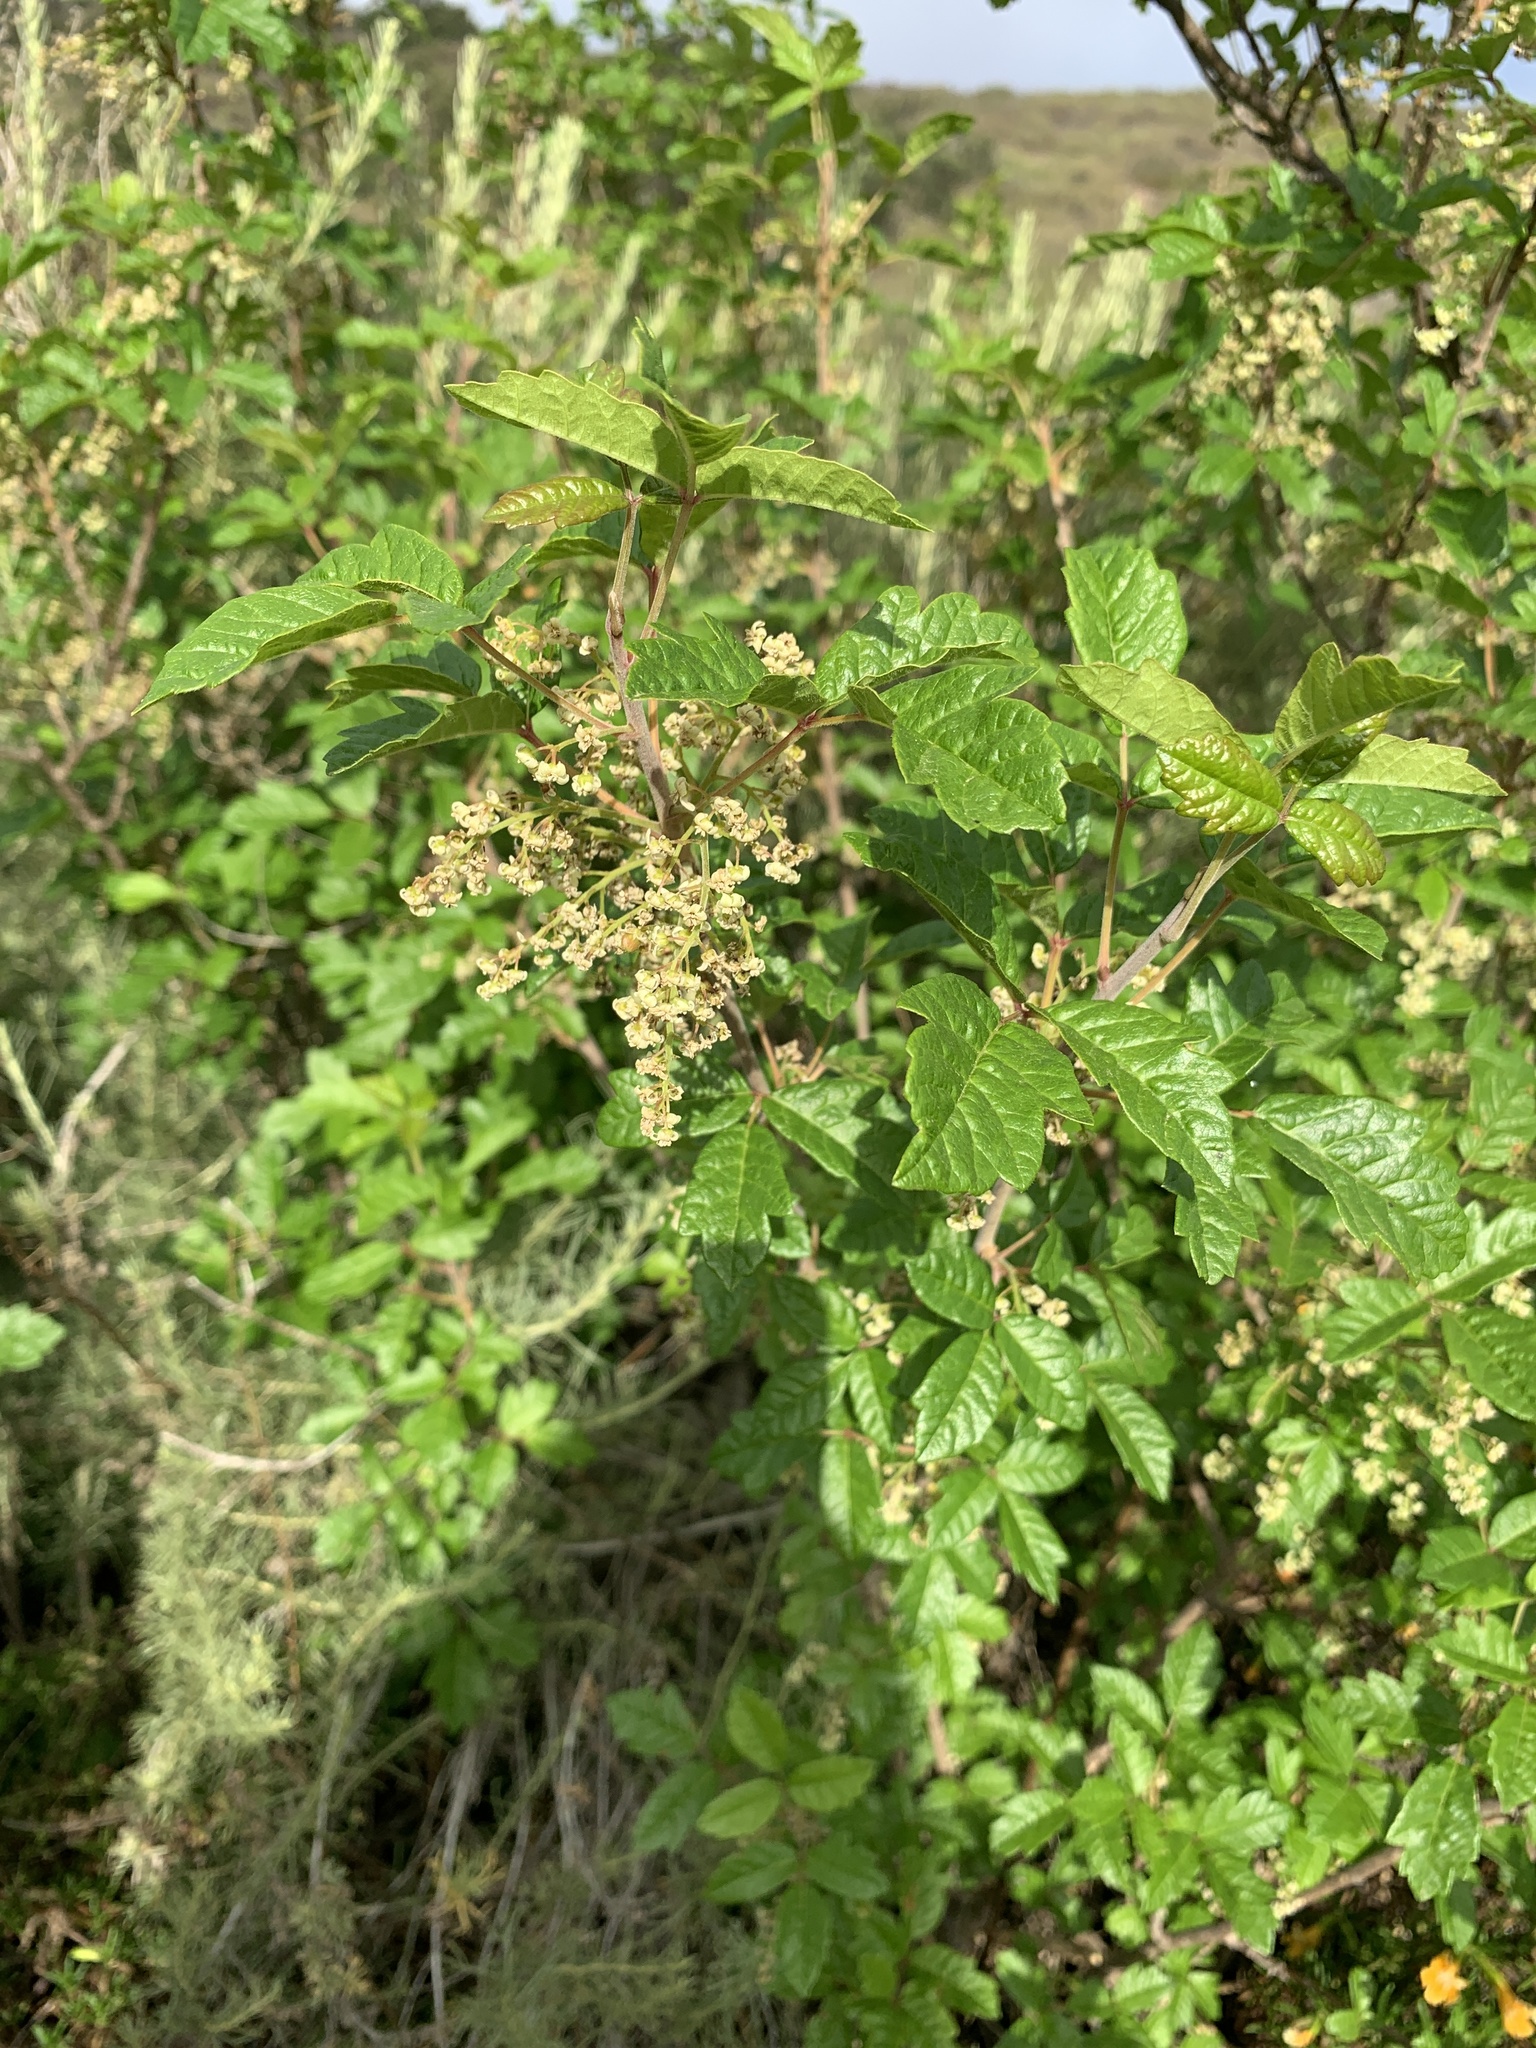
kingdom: Plantae
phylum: Tracheophyta
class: Magnoliopsida
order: Sapindales
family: Anacardiaceae
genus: Toxicodendron
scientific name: Toxicodendron diversilobum
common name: Pacific poison-oak
